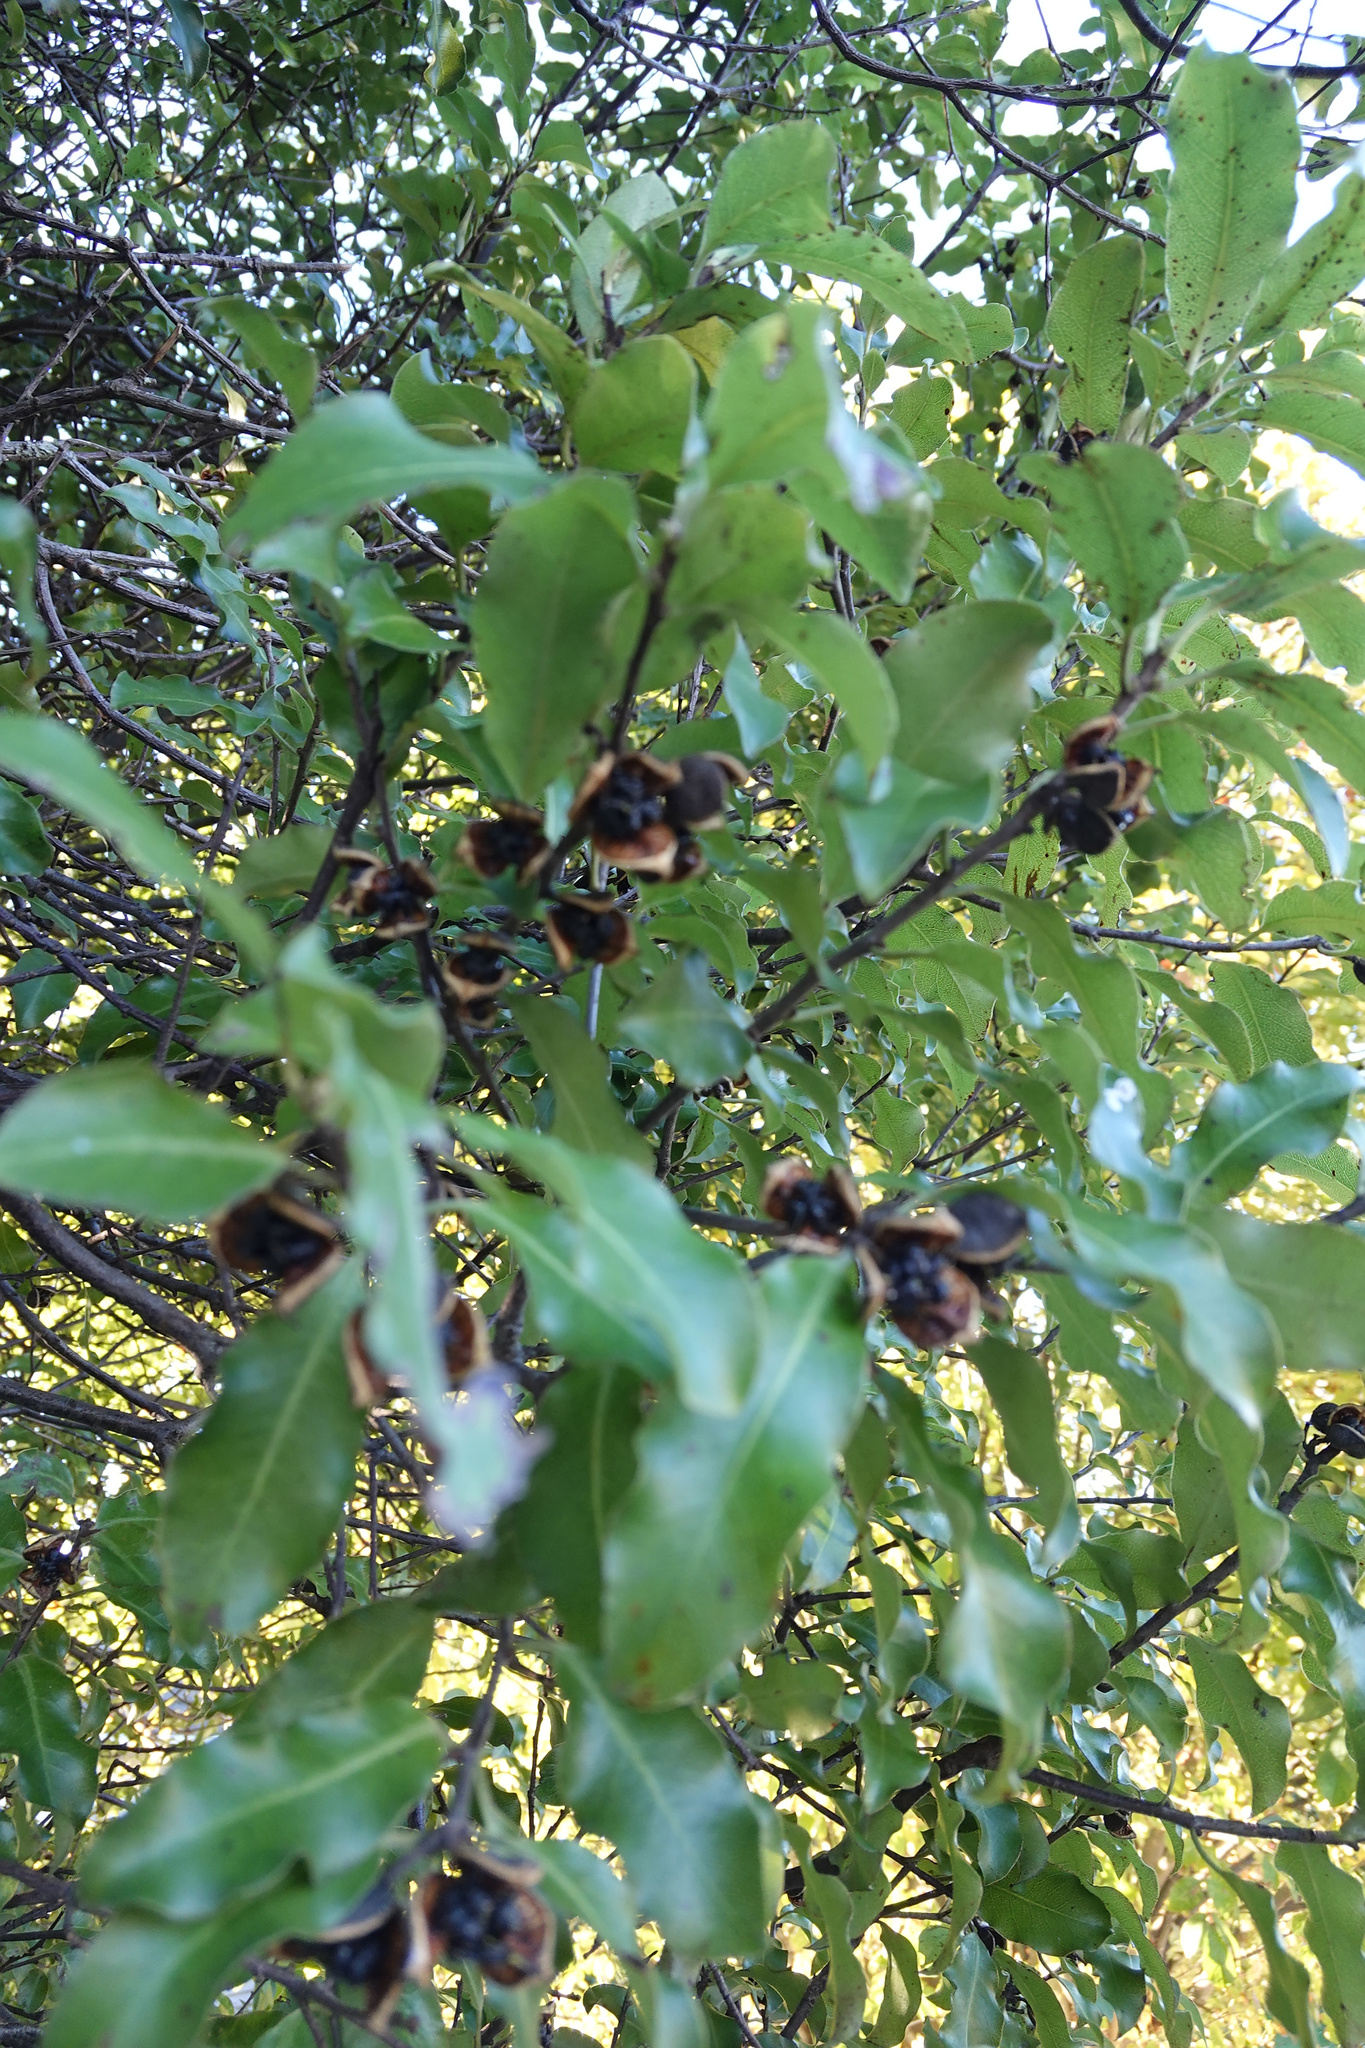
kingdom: Plantae
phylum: Tracheophyta
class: Magnoliopsida
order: Apiales
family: Pittosporaceae
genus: Pittosporum
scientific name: Pittosporum tenuifolium
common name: Kohuhu
